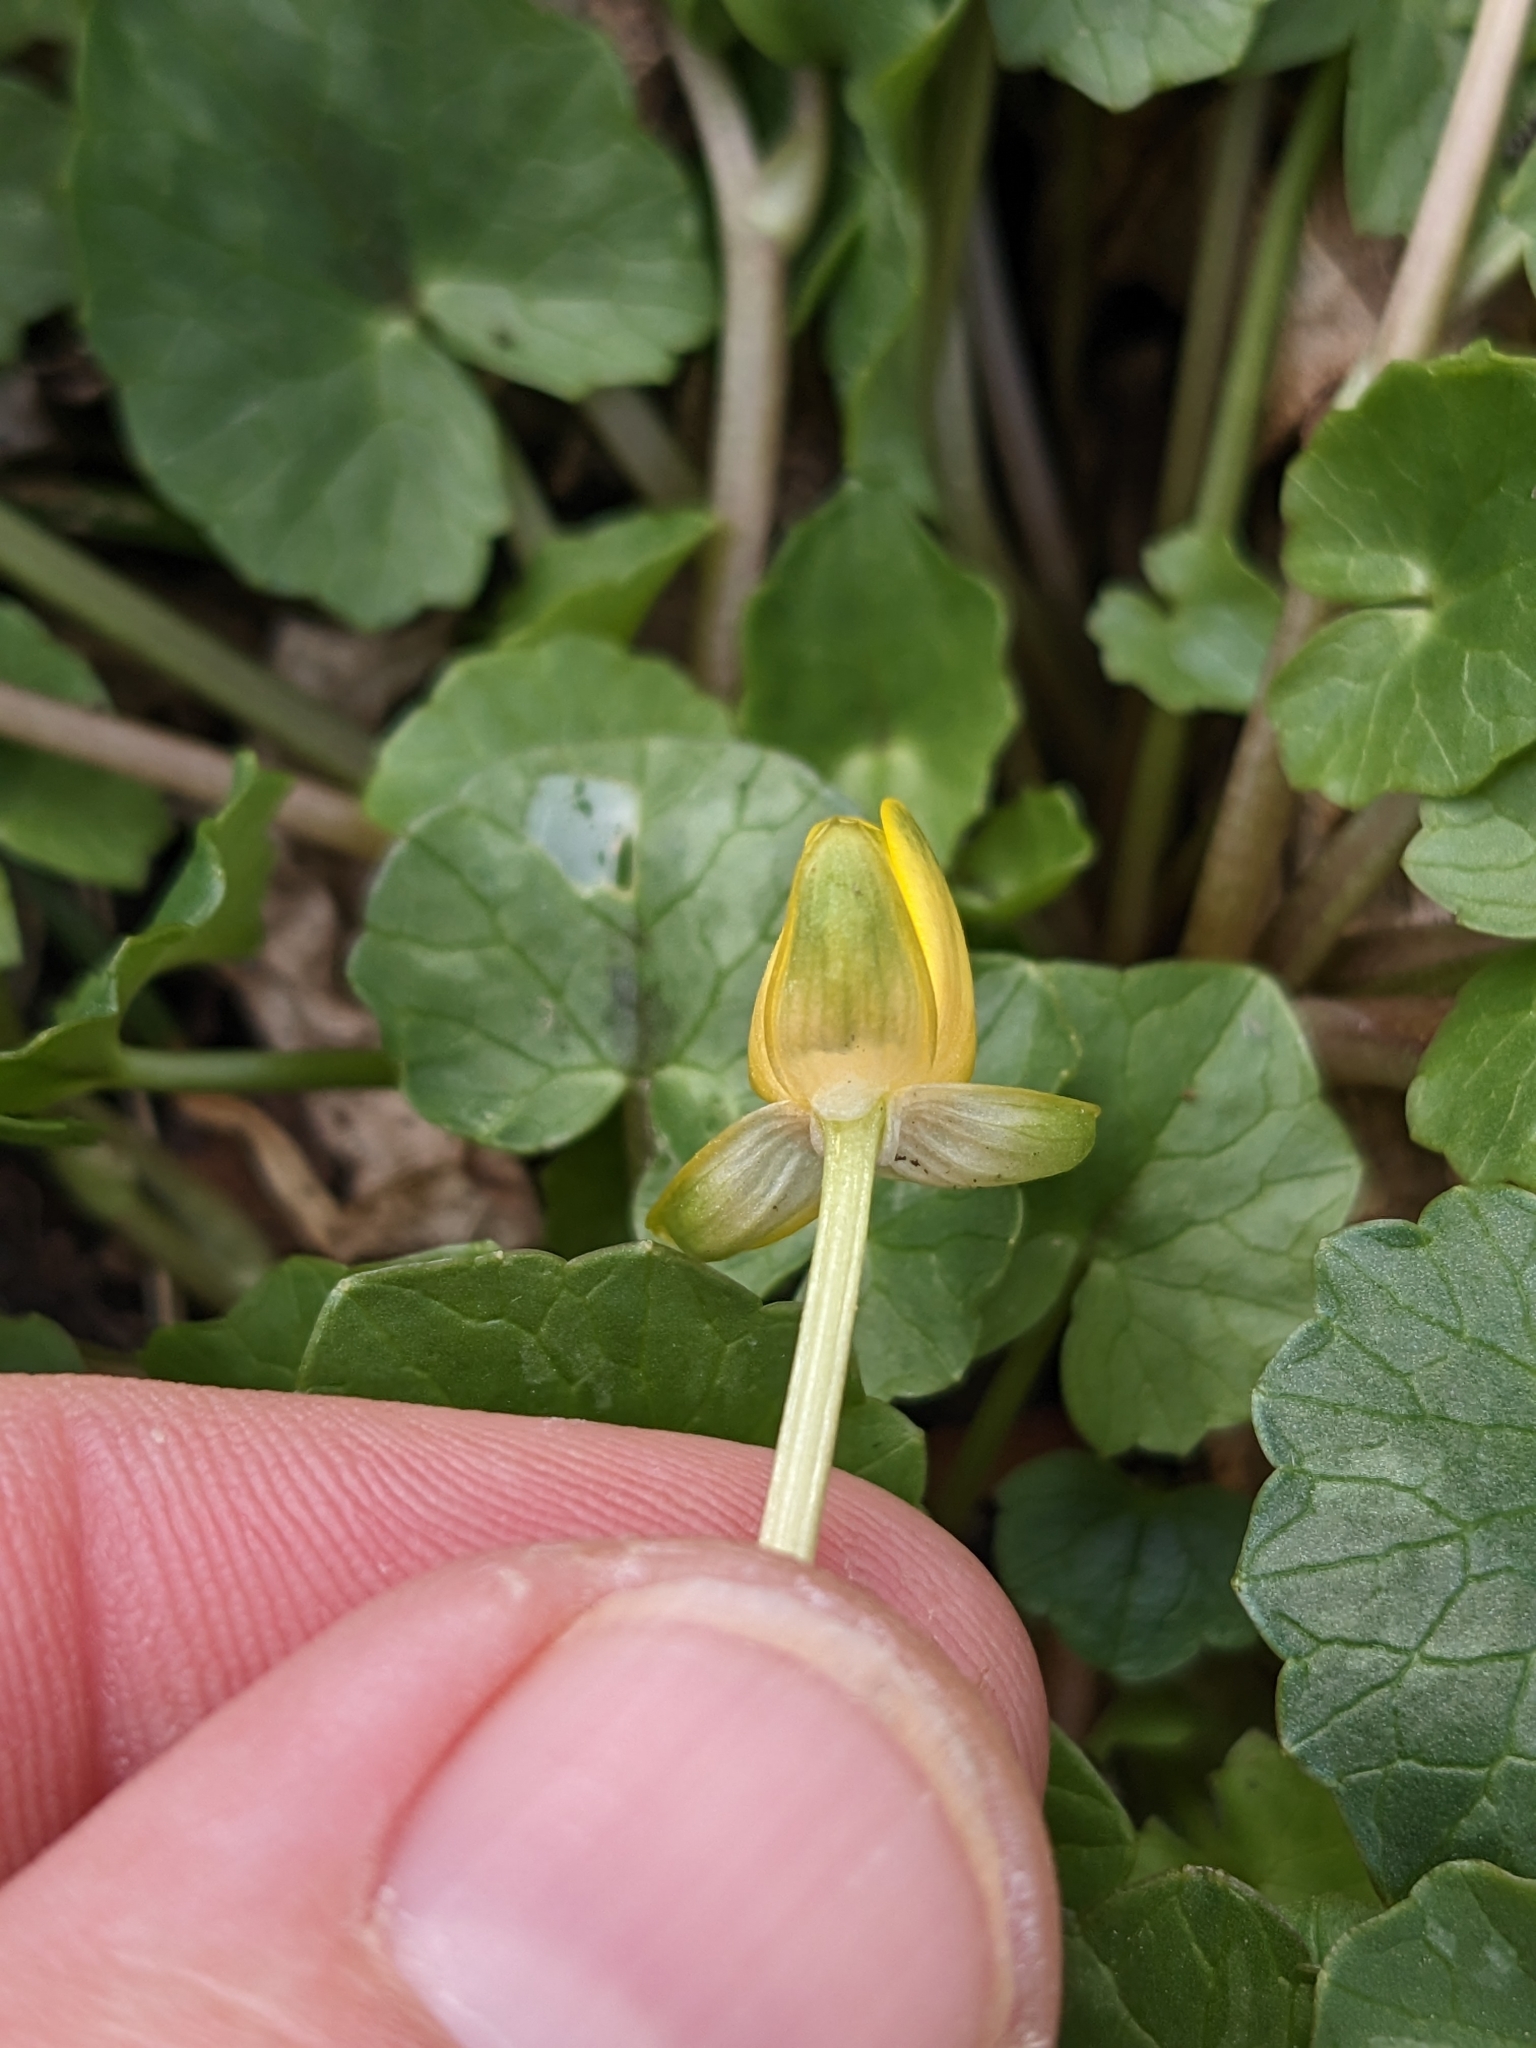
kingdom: Plantae
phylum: Tracheophyta
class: Magnoliopsida
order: Ranunculales
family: Ranunculaceae
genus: Ficaria
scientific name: Ficaria verna
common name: Lesser celandine
